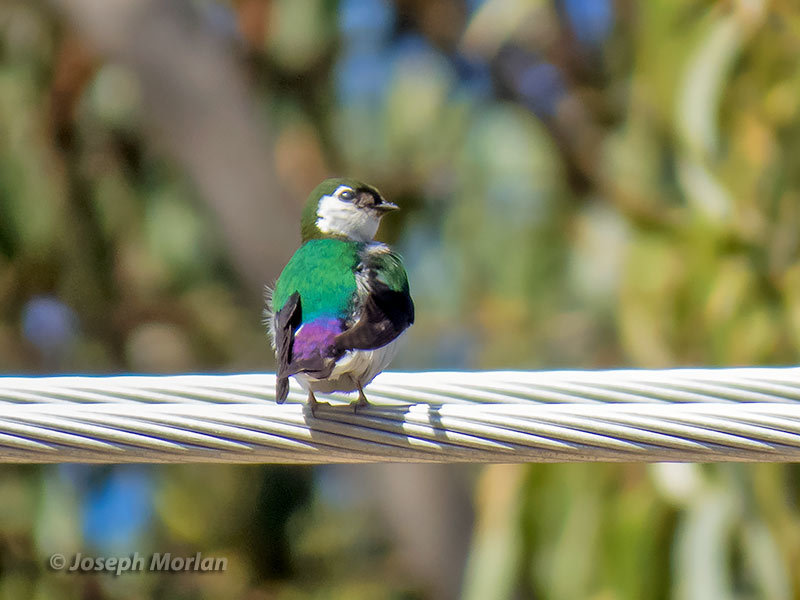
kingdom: Animalia
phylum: Chordata
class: Aves
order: Passeriformes
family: Hirundinidae
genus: Tachycineta
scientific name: Tachycineta thalassina
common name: Violet-green swallow
